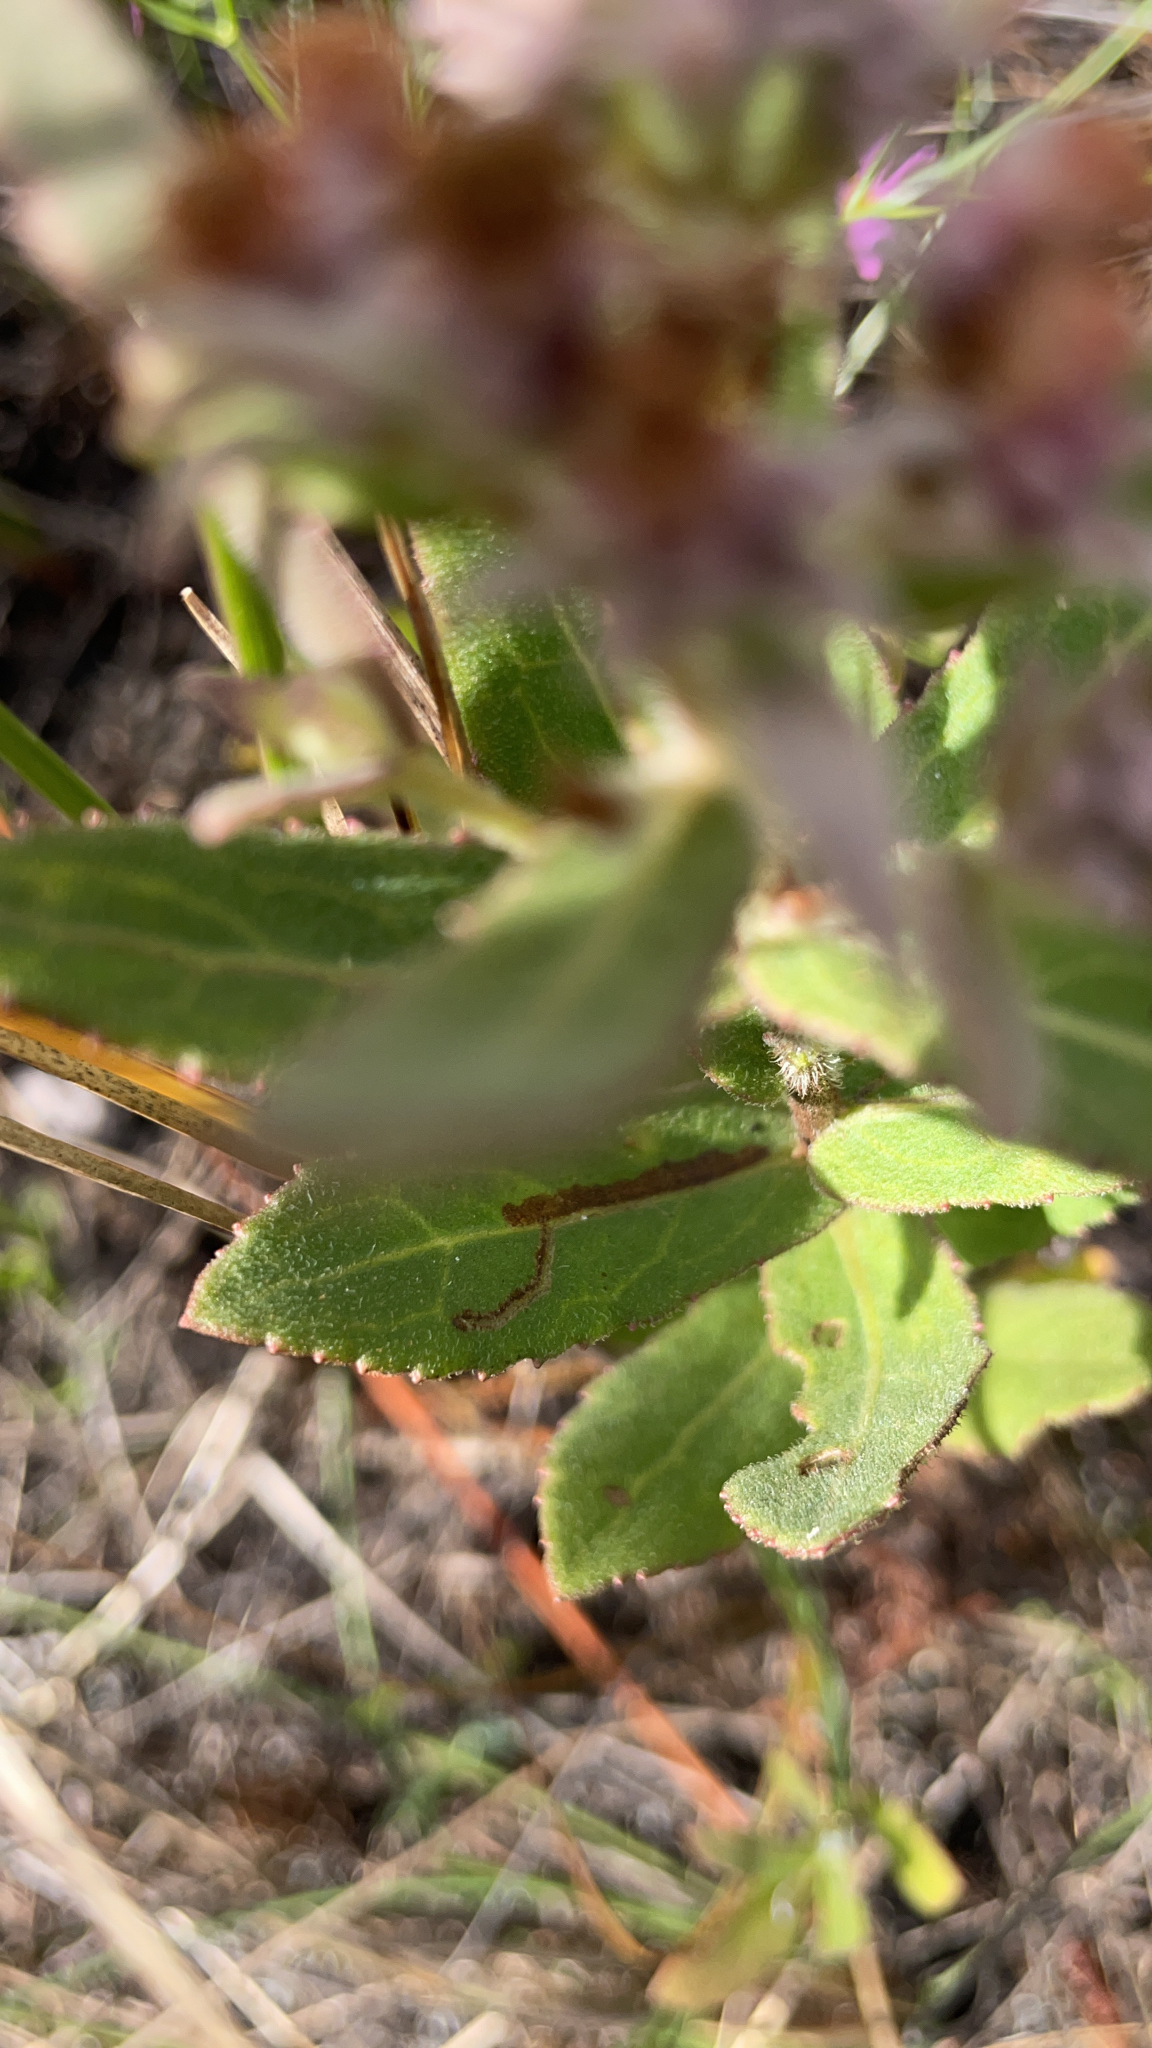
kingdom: Plantae
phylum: Tracheophyta
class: Magnoliopsida
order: Asterales
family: Asteraceae
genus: Pluchea
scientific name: Pluchea baccharis
